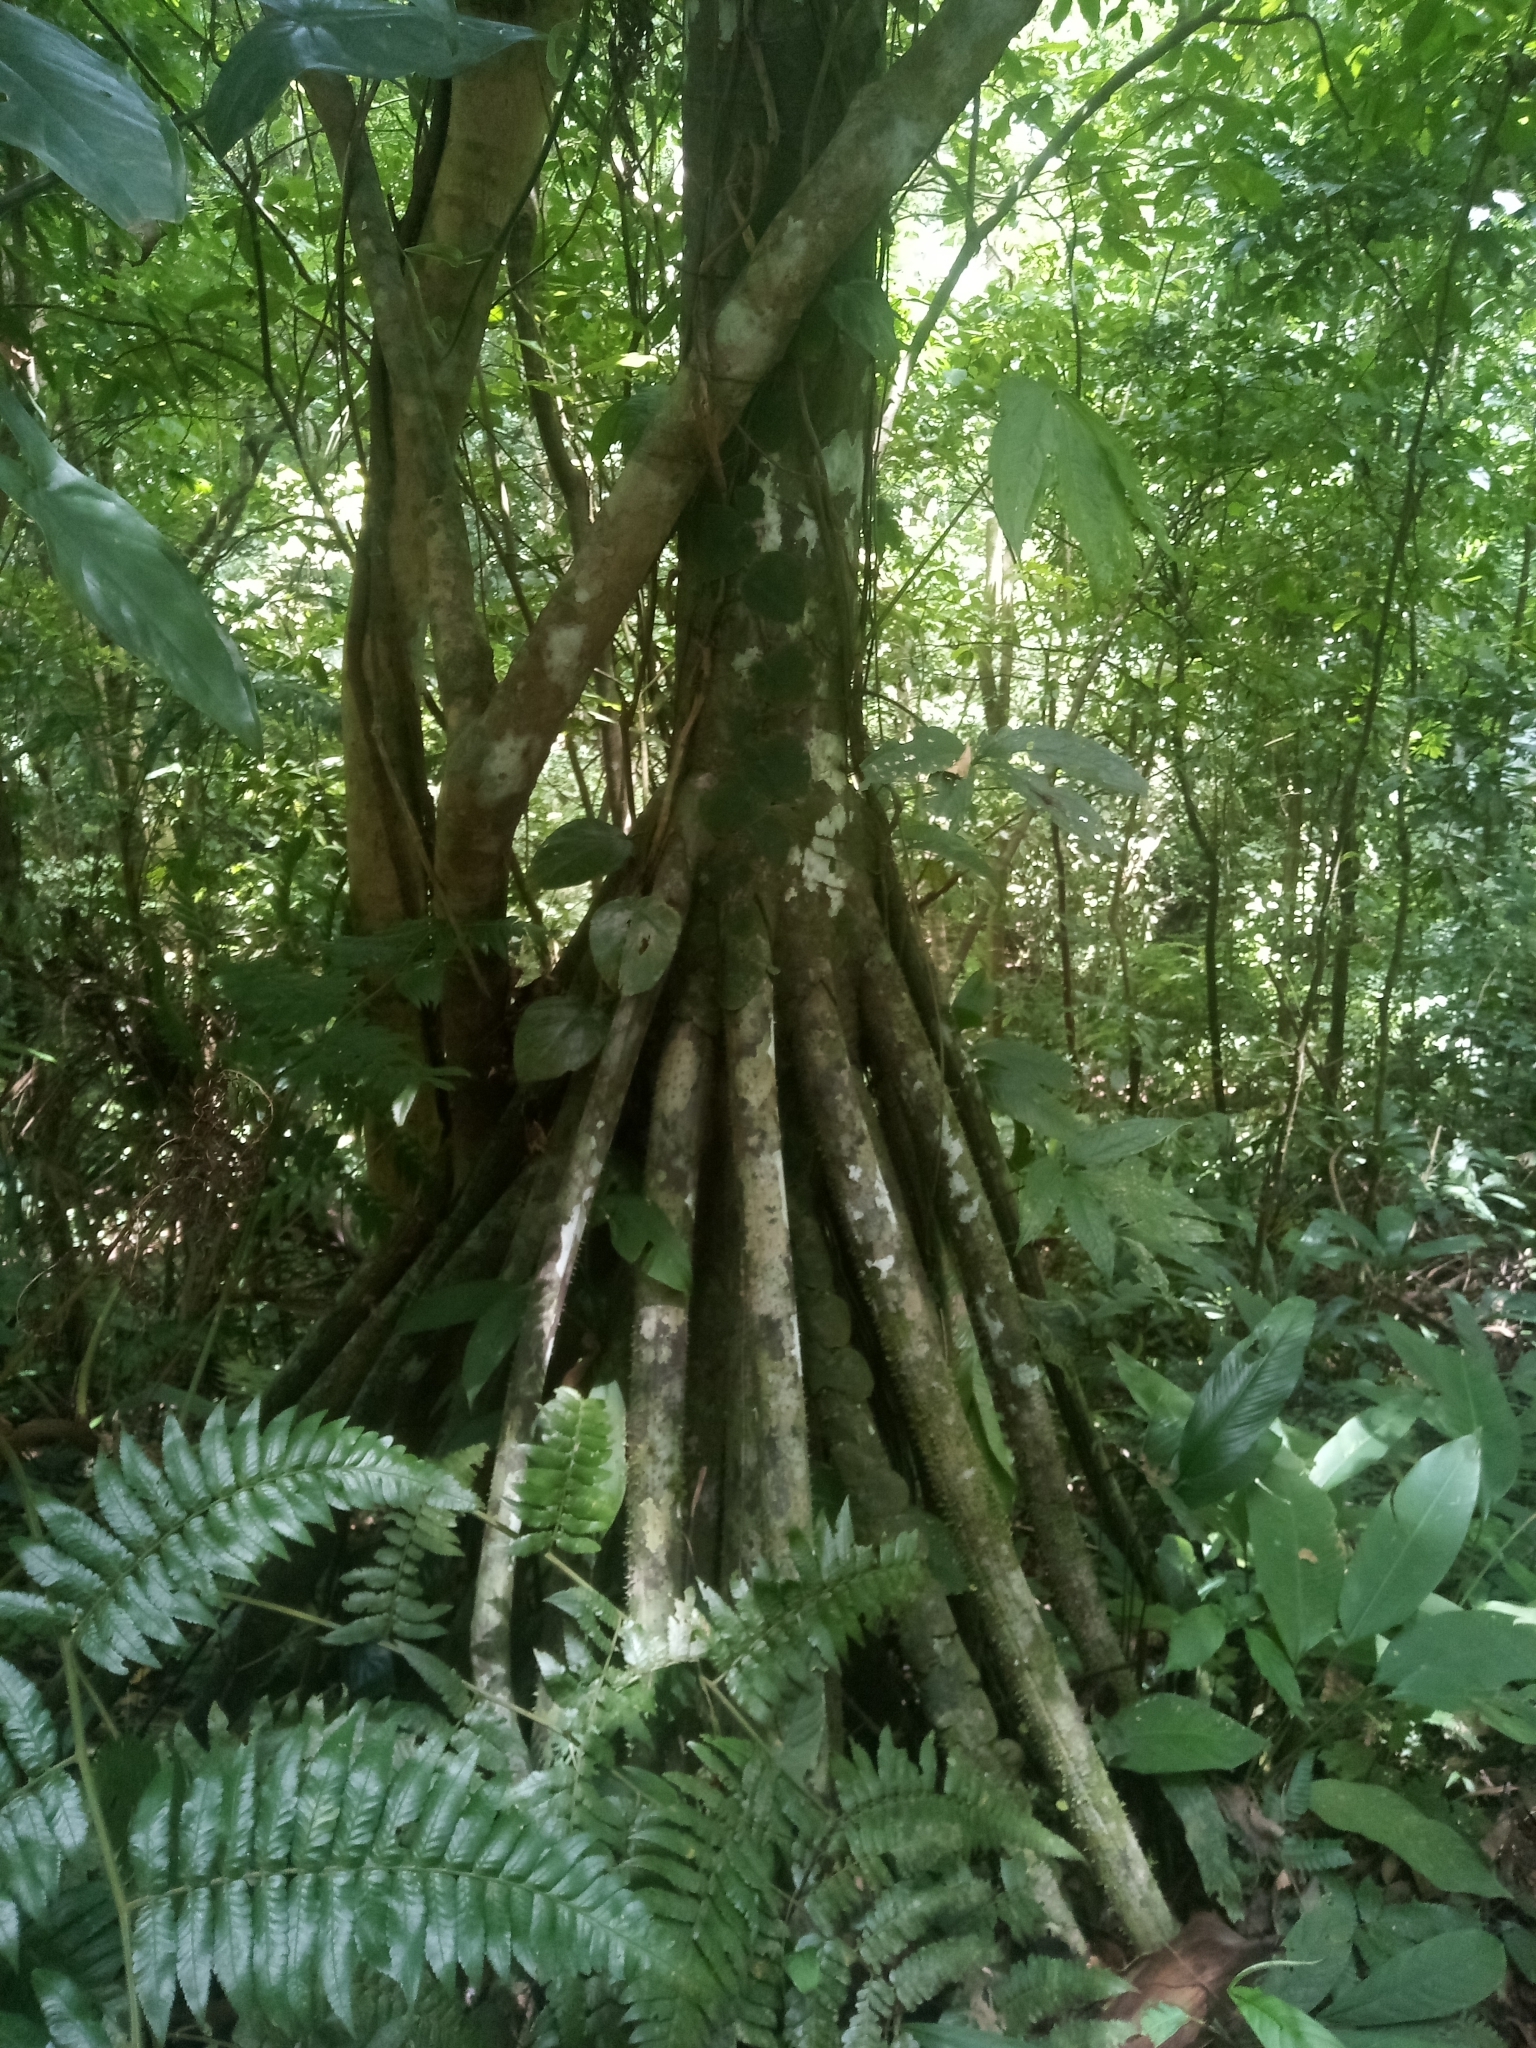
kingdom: Plantae
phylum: Tracheophyta
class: Liliopsida
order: Arecales
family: Arecaceae
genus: Socratea
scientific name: Socratea exorrhiza
